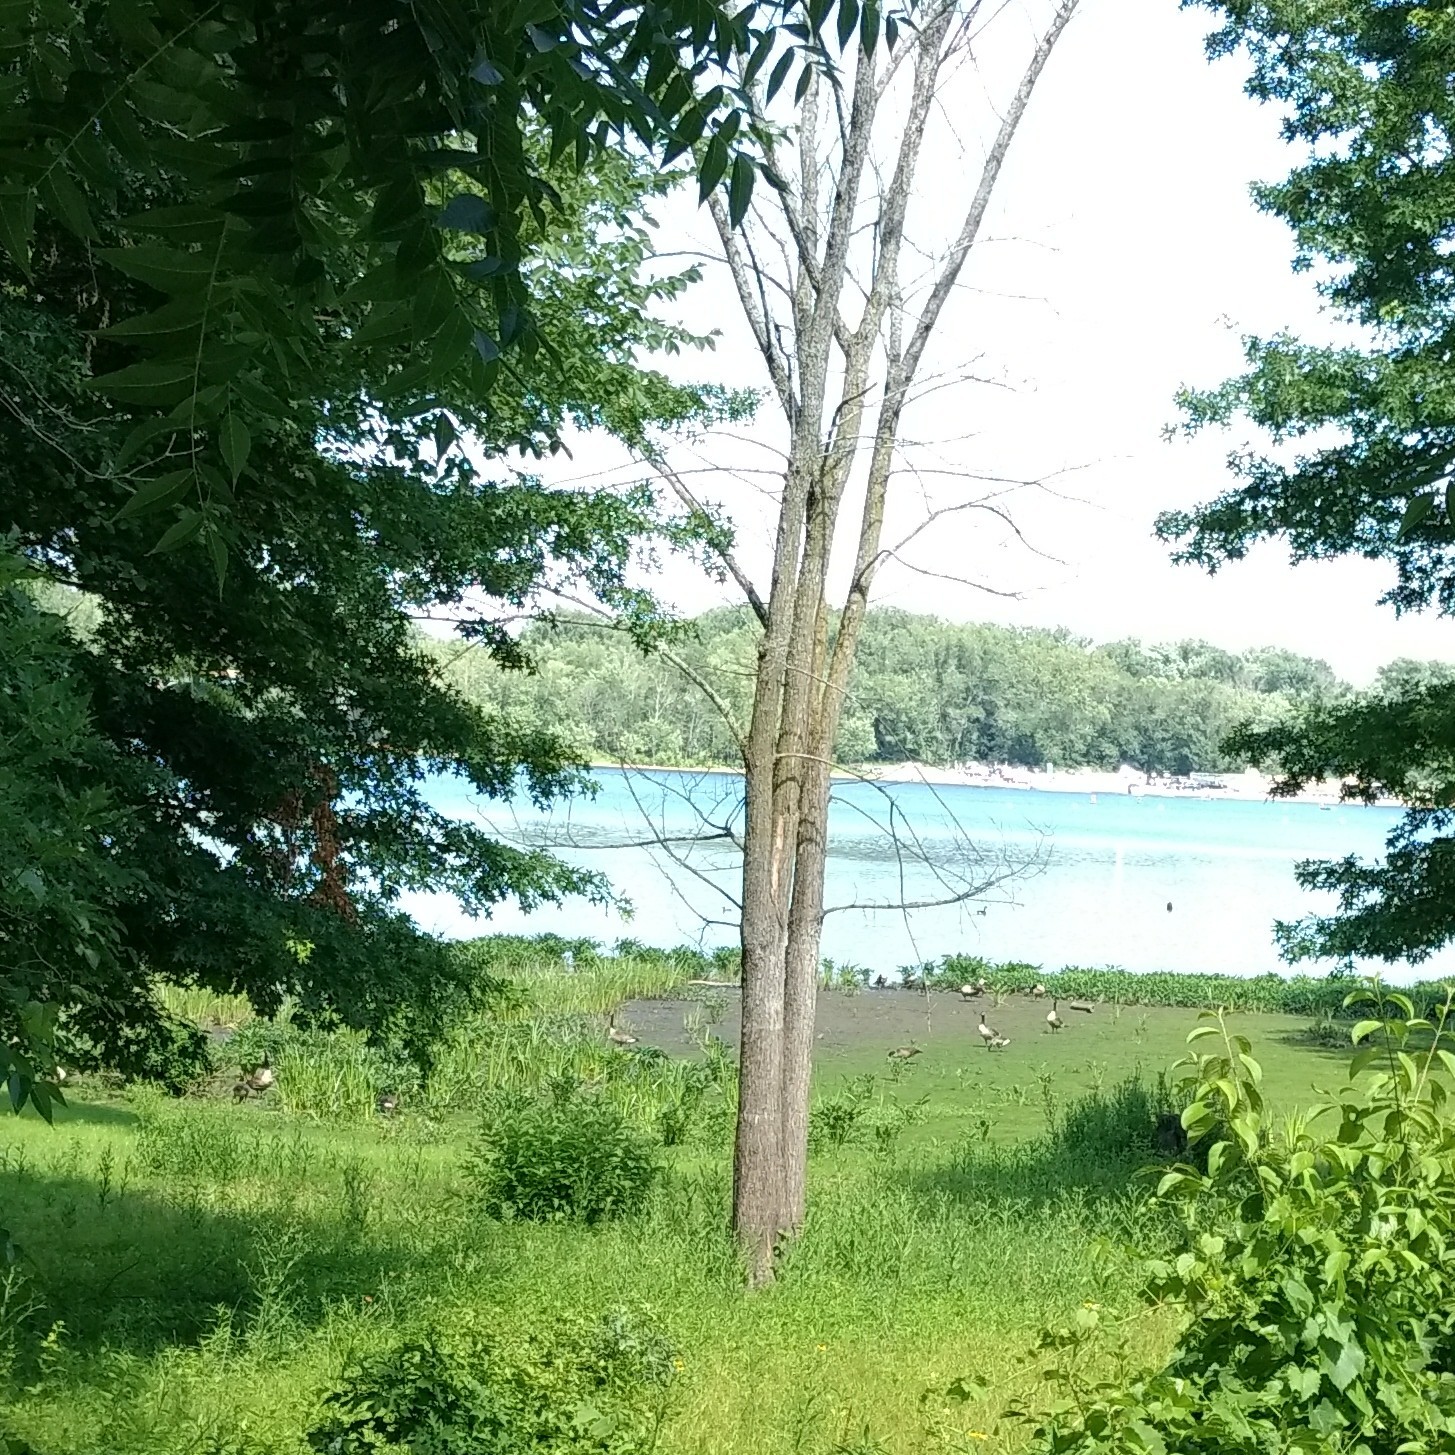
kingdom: Animalia
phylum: Chordata
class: Aves
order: Anseriformes
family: Anatidae
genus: Branta
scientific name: Branta canadensis
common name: Canada goose
